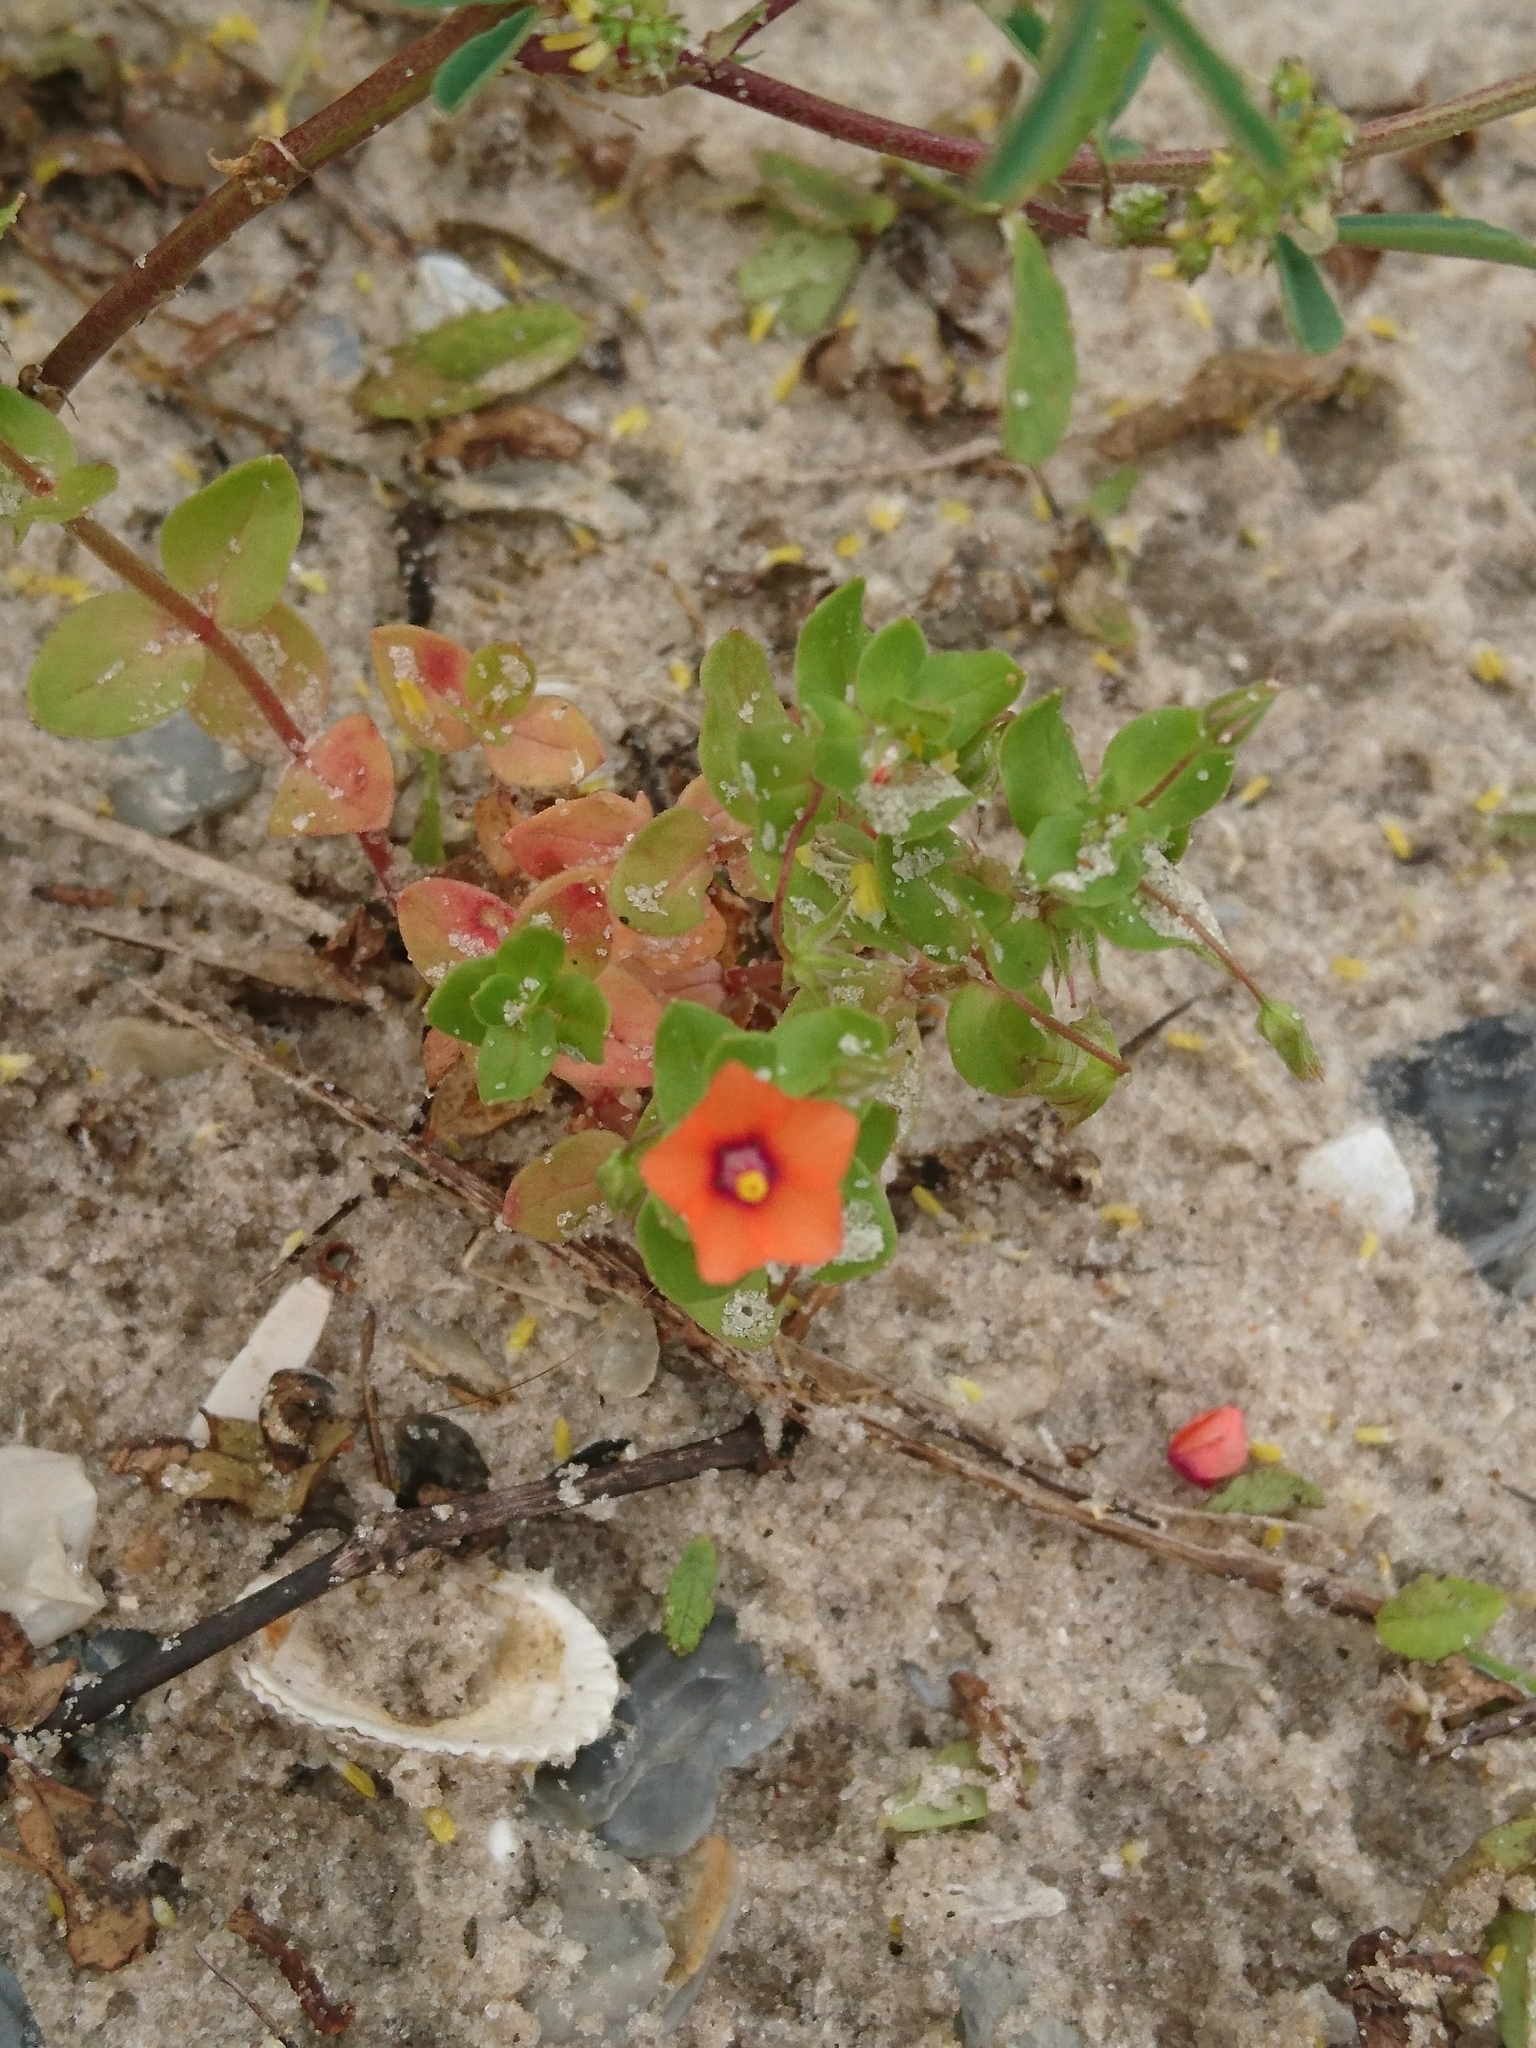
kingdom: Plantae
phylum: Tracheophyta
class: Magnoliopsida
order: Ericales
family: Primulaceae
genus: Lysimachia
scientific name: Lysimachia arvensis
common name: Scarlet pimpernel
